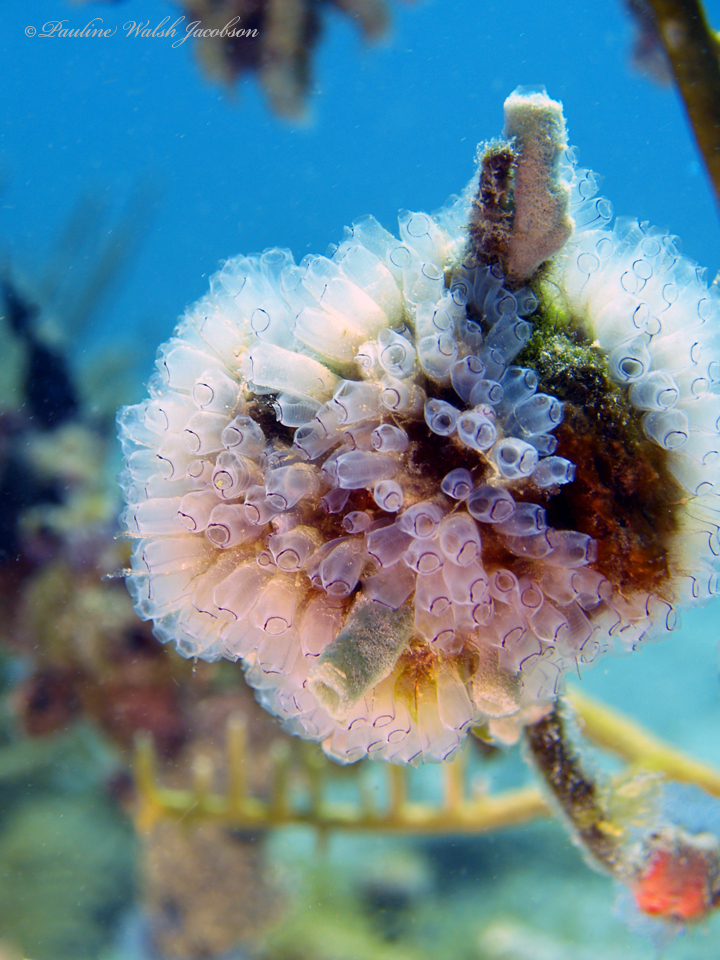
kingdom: Animalia
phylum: Chordata
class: Ascidiacea
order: Aplousobranchia
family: Clavelinidae
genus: Clavelina
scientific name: Clavelina picta
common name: Painted tunicate
